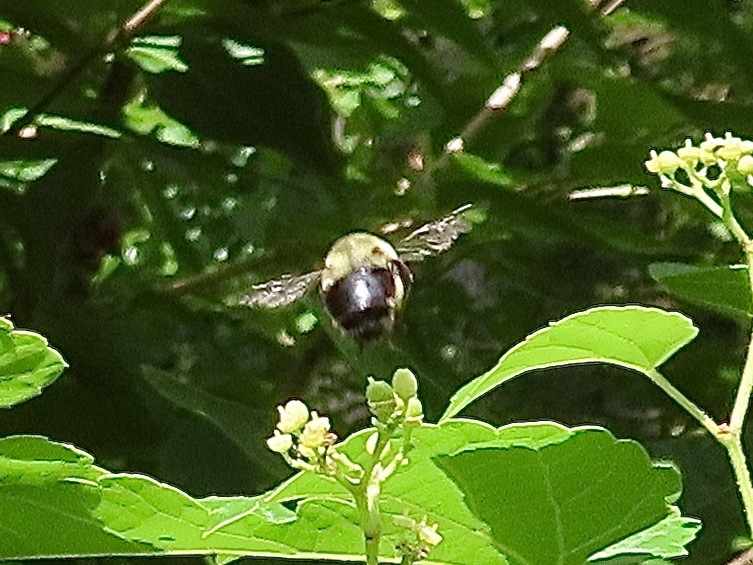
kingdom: Animalia
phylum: Arthropoda
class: Insecta
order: Hymenoptera
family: Apidae
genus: Xylocopa
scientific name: Xylocopa virginica
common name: Carpenter bee
